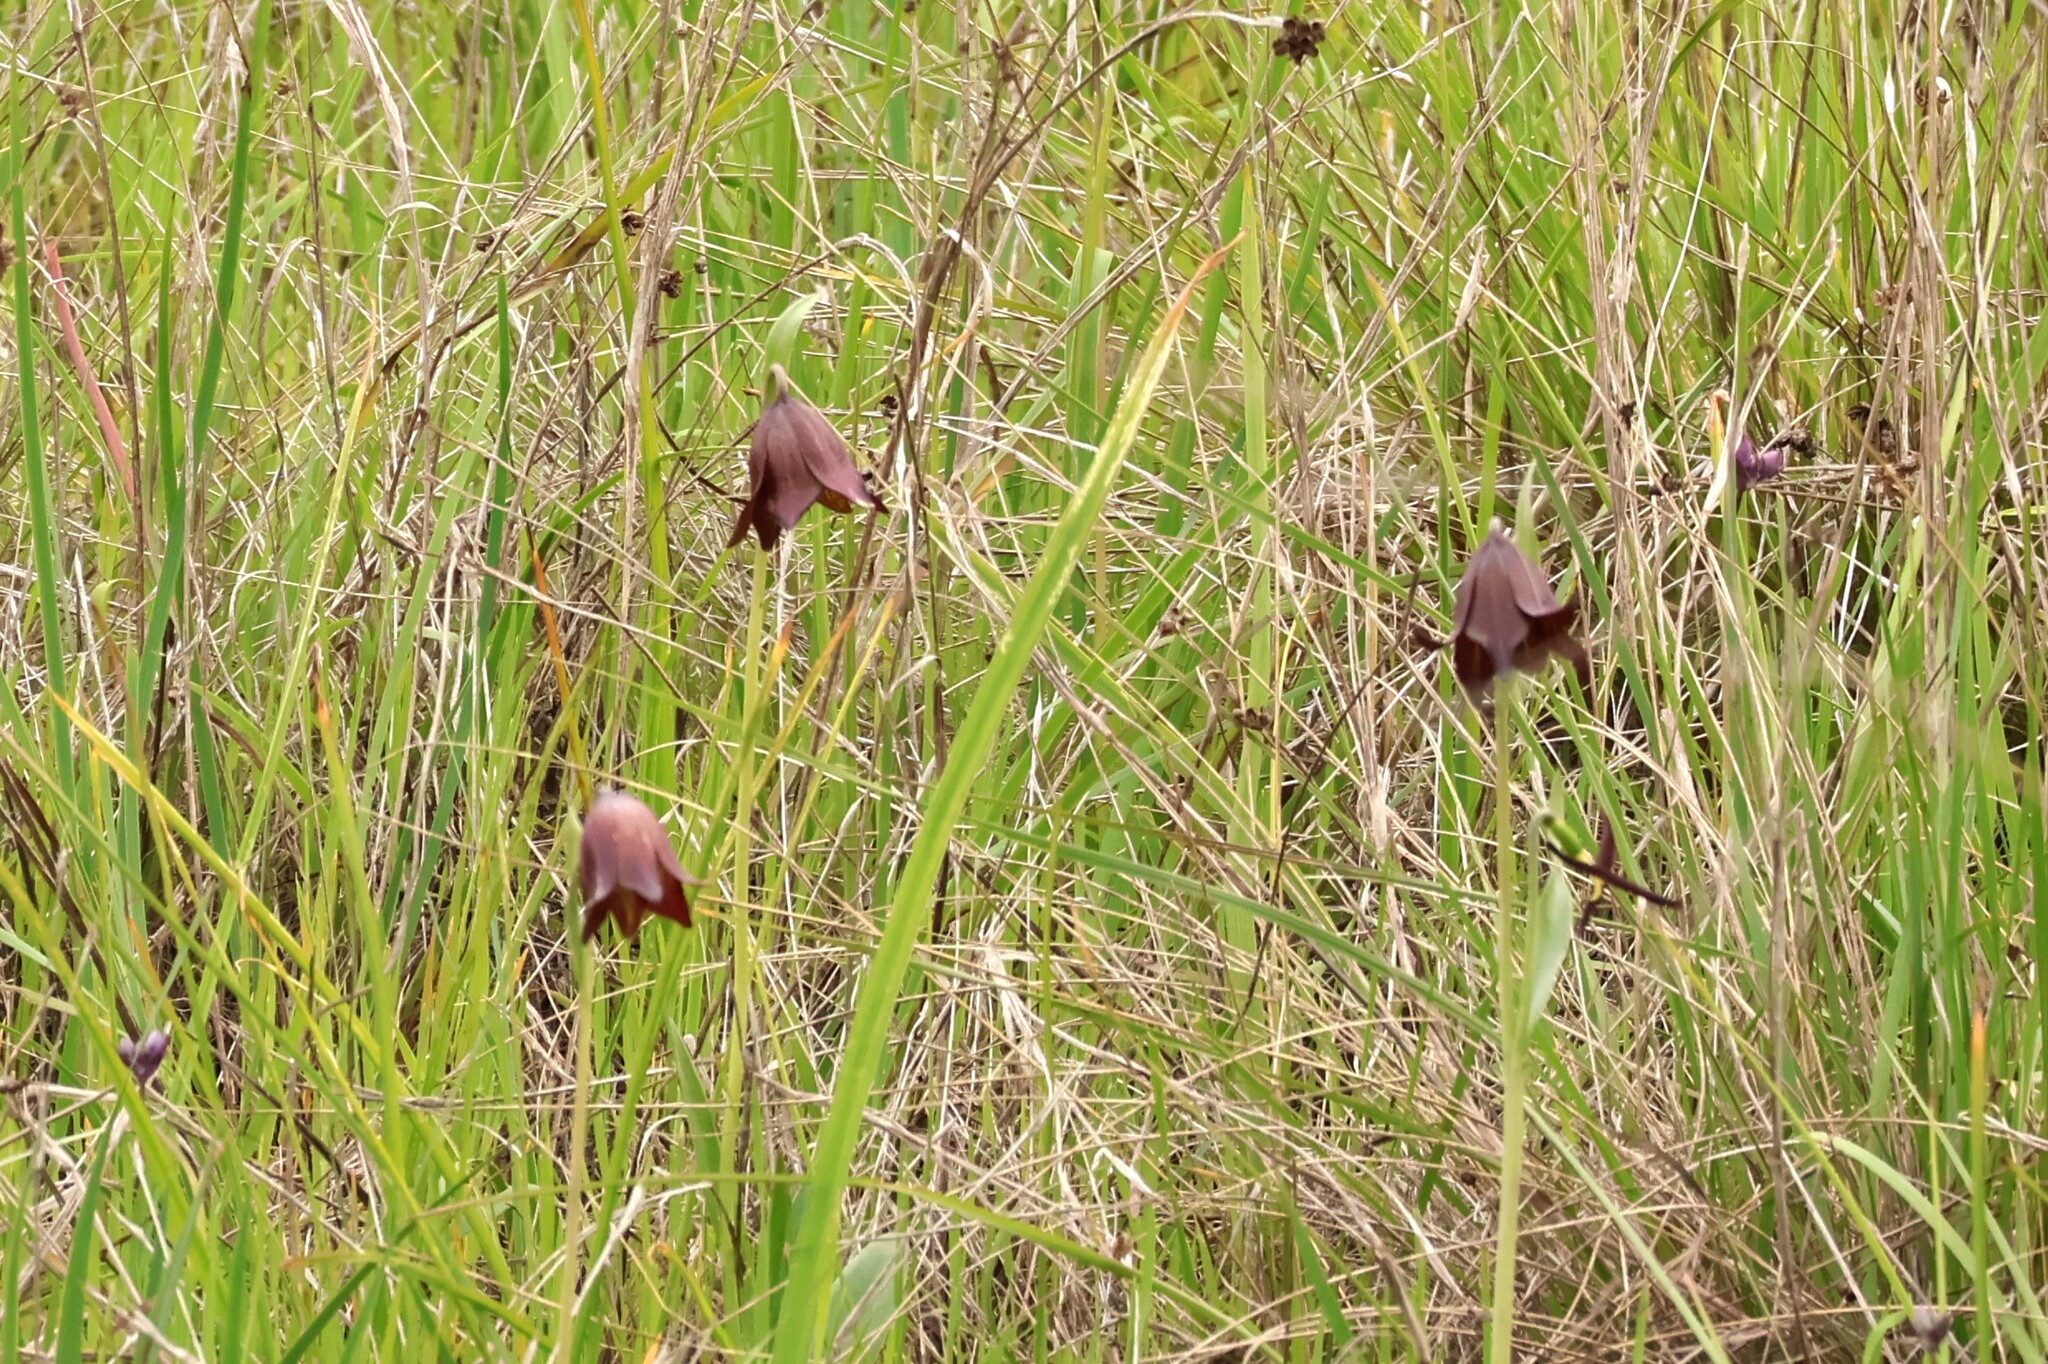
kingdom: Plantae
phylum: Tracheophyta
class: Liliopsida
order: Liliales
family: Liliaceae
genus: Fritillaria
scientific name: Fritillaria biflora
